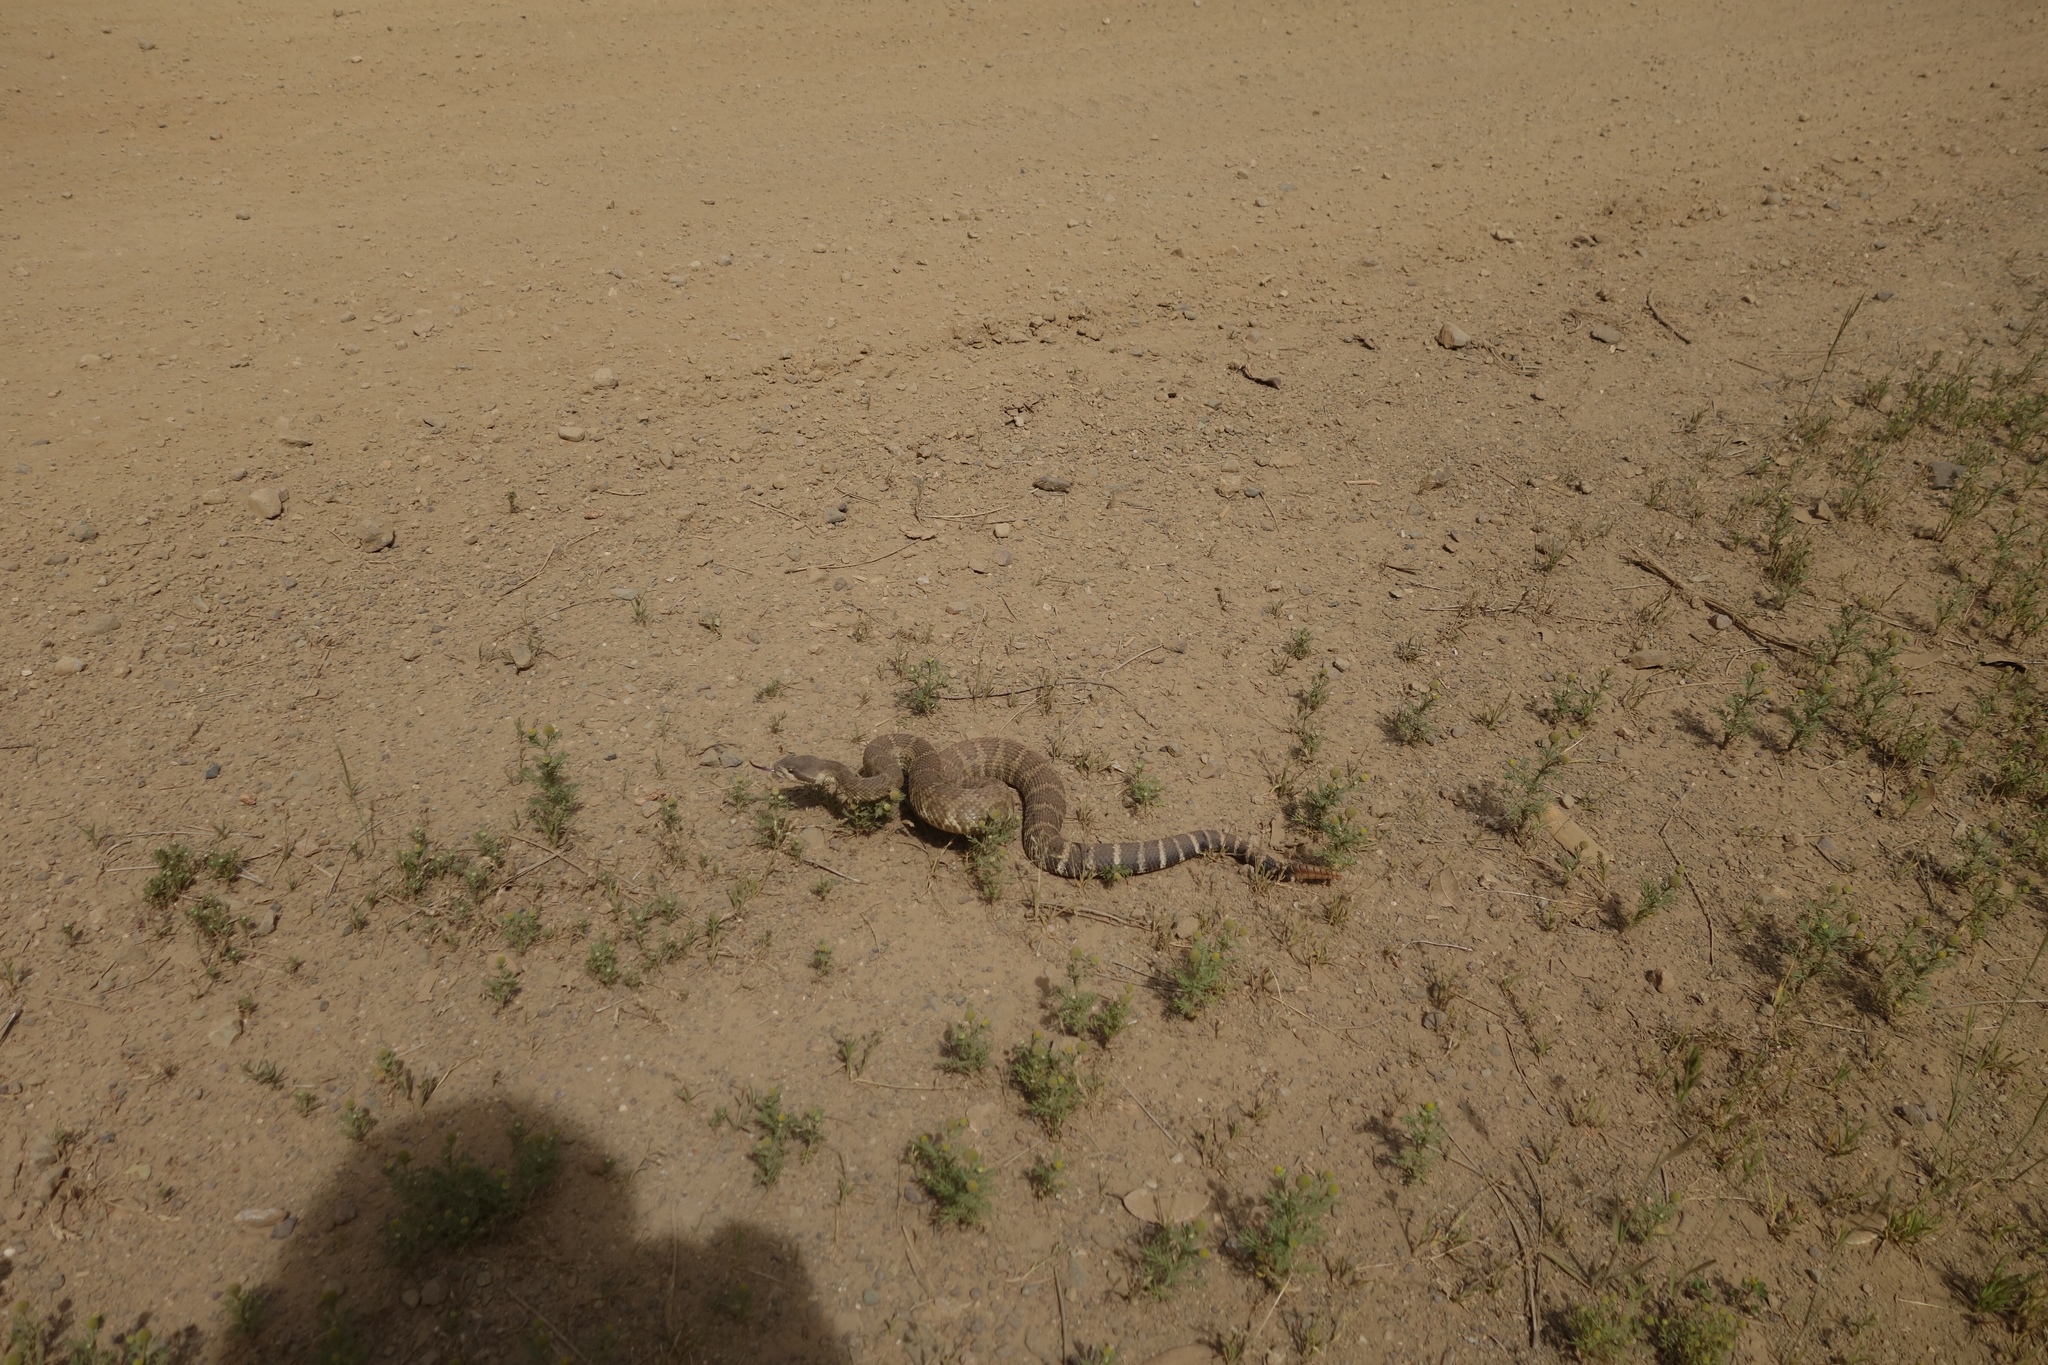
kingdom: Animalia
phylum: Chordata
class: Squamata
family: Viperidae
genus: Crotalus
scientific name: Crotalus oreganus
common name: Abyssus
